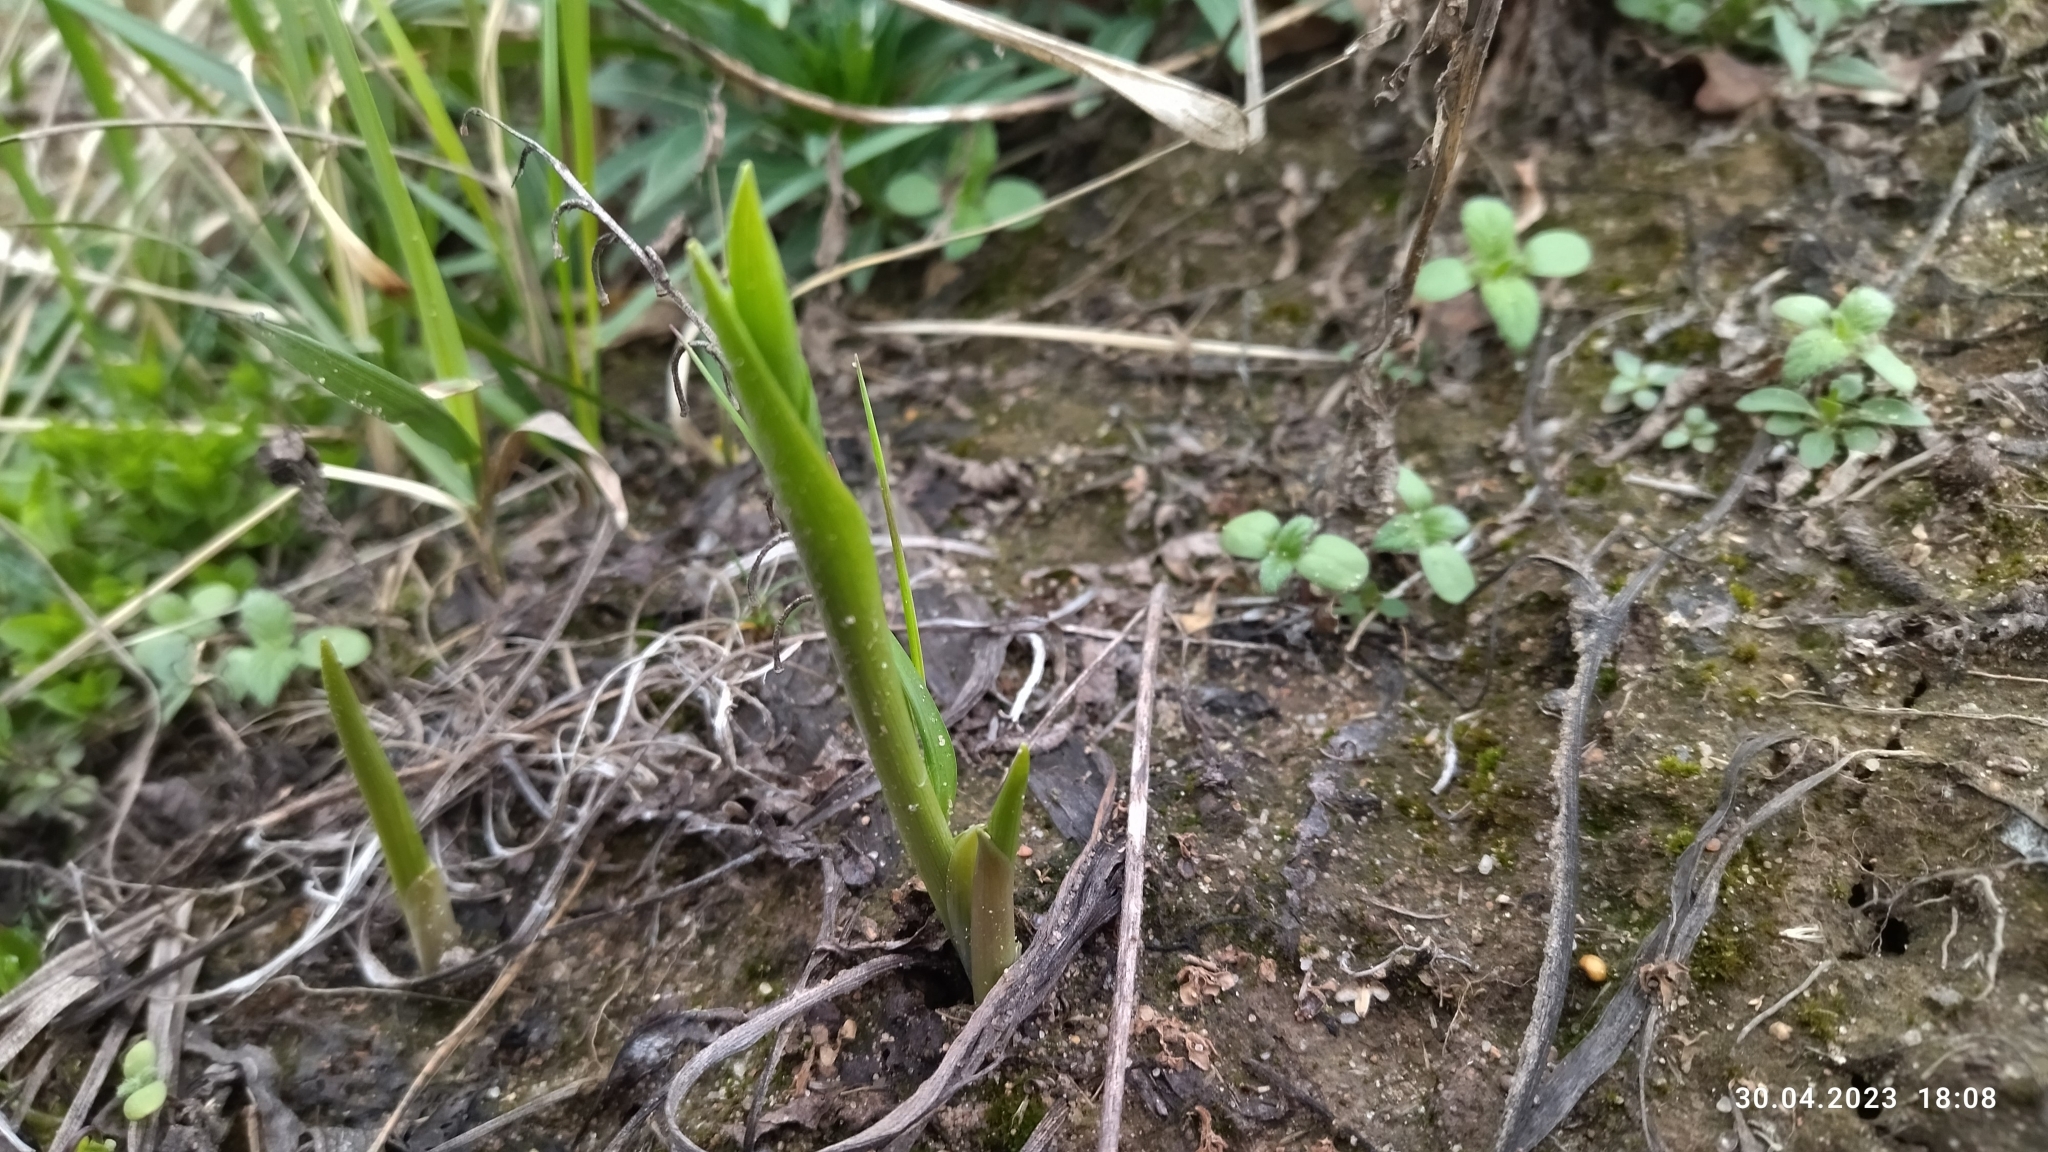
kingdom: Plantae
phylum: Tracheophyta
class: Liliopsida
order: Asparagales
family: Asparagaceae
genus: Convallaria
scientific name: Convallaria majalis
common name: Lily-of-the-valley
